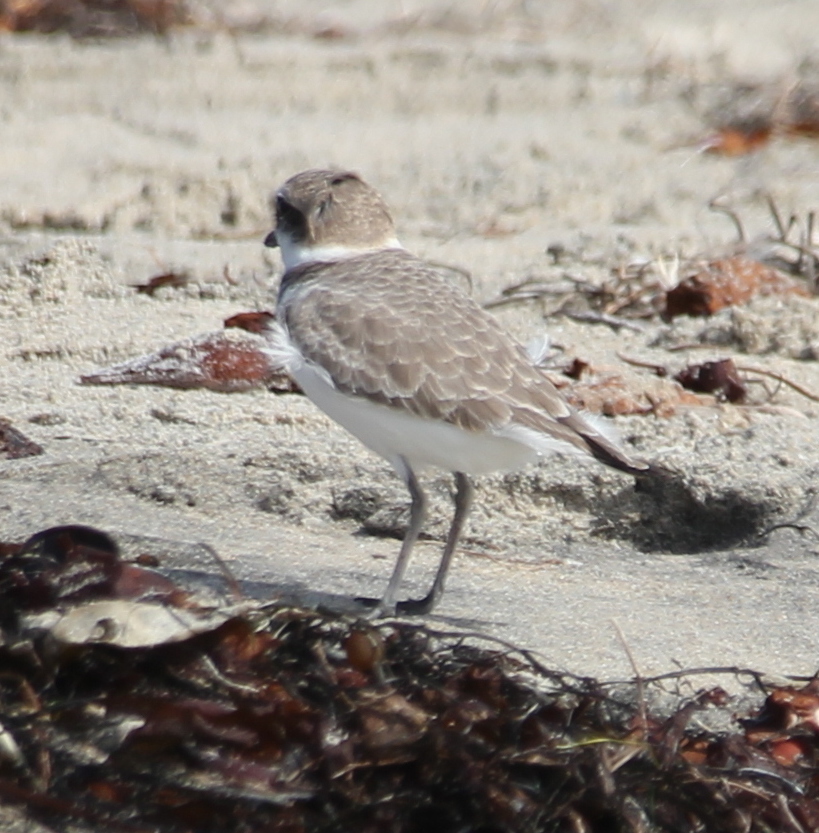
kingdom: Animalia
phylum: Chordata
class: Aves
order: Charadriiformes
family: Charadriidae
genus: Anarhynchus
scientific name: Anarhynchus
